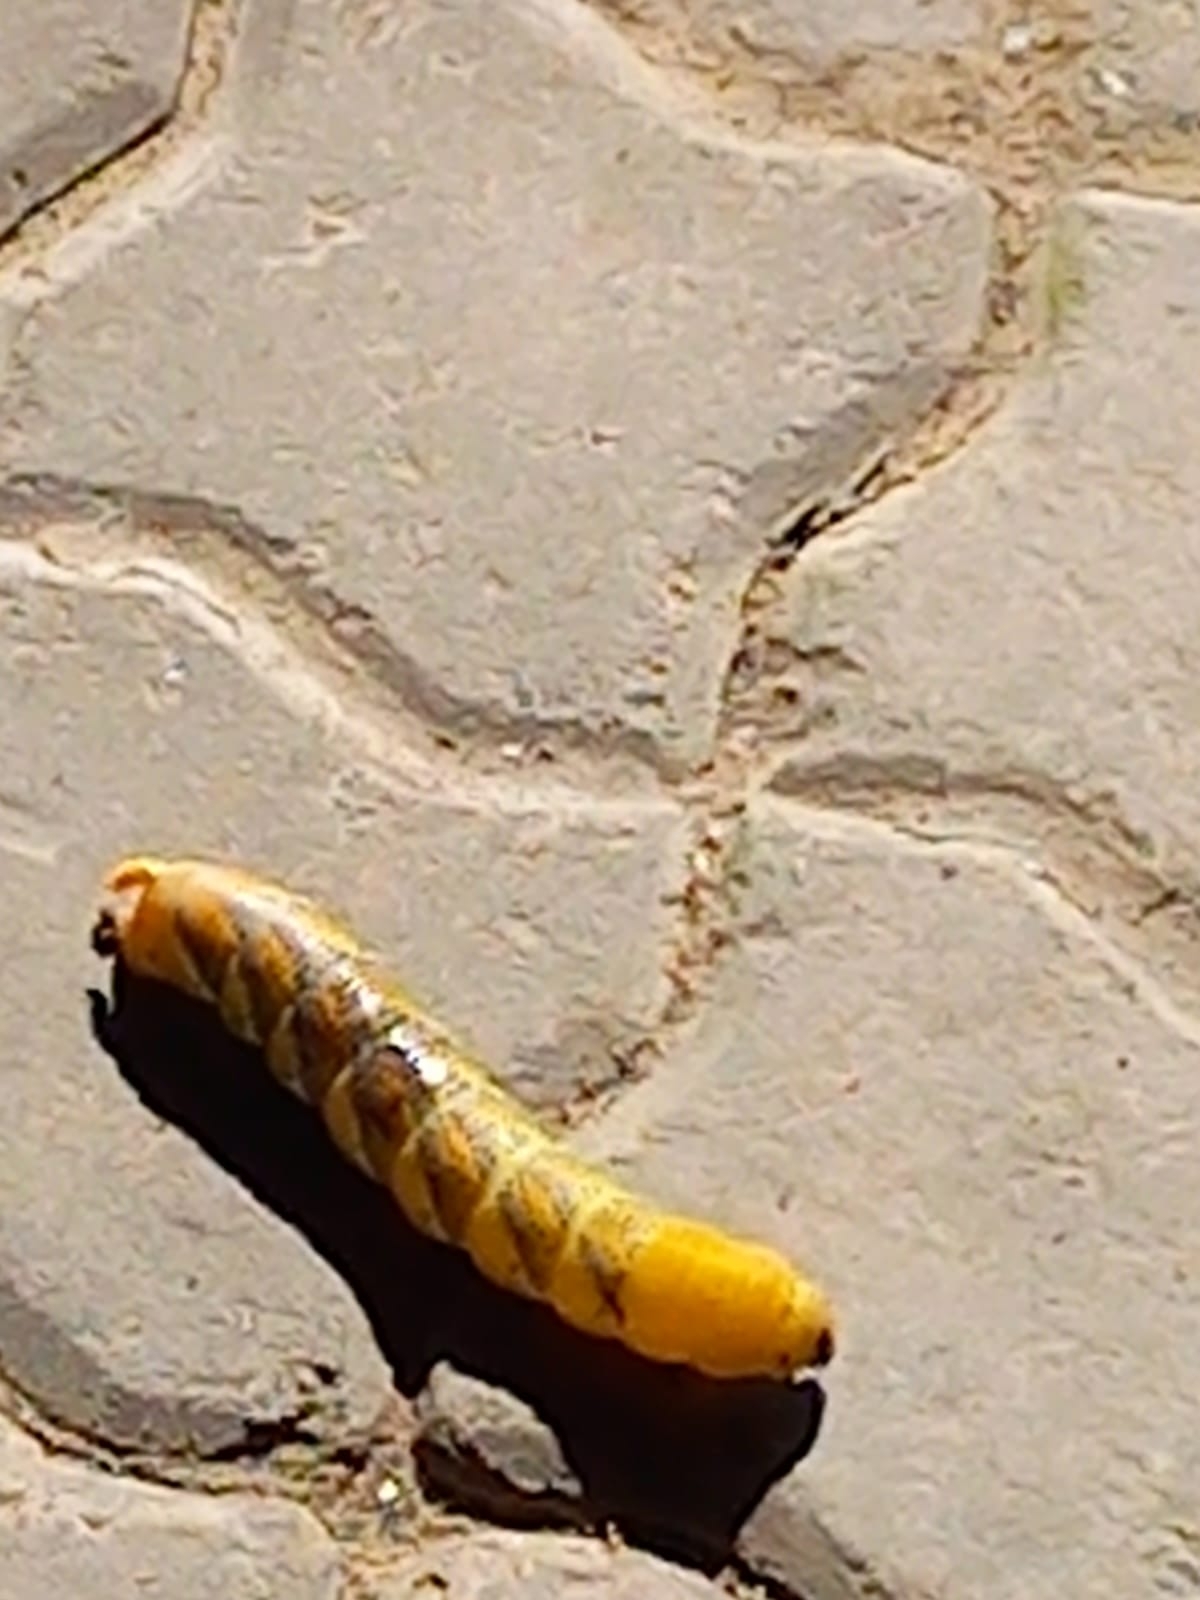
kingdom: Animalia
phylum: Arthropoda
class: Insecta
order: Lepidoptera
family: Sphingidae
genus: Acherontia
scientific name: Acherontia atropos
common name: Death's-head hawk moth
